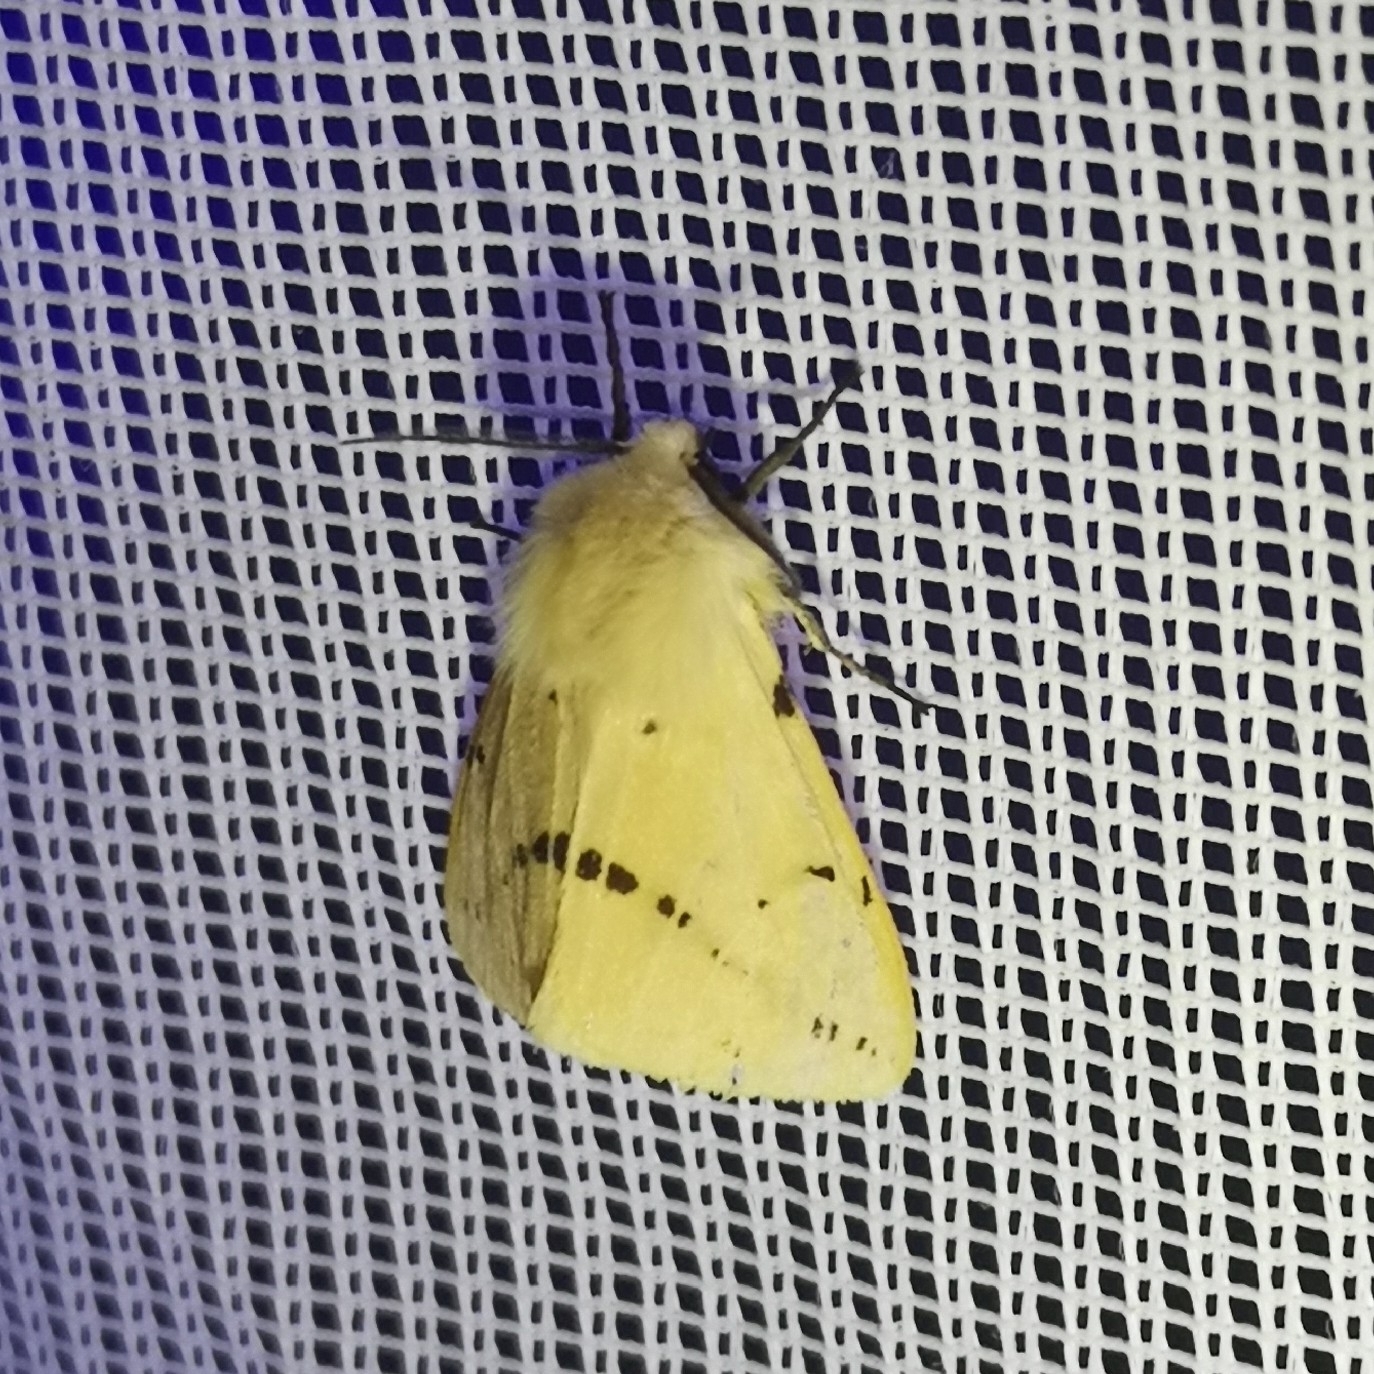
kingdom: Animalia
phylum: Arthropoda
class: Insecta
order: Lepidoptera
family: Erebidae
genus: Spilarctia
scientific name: Spilarctia lutea
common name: Buff ermine
